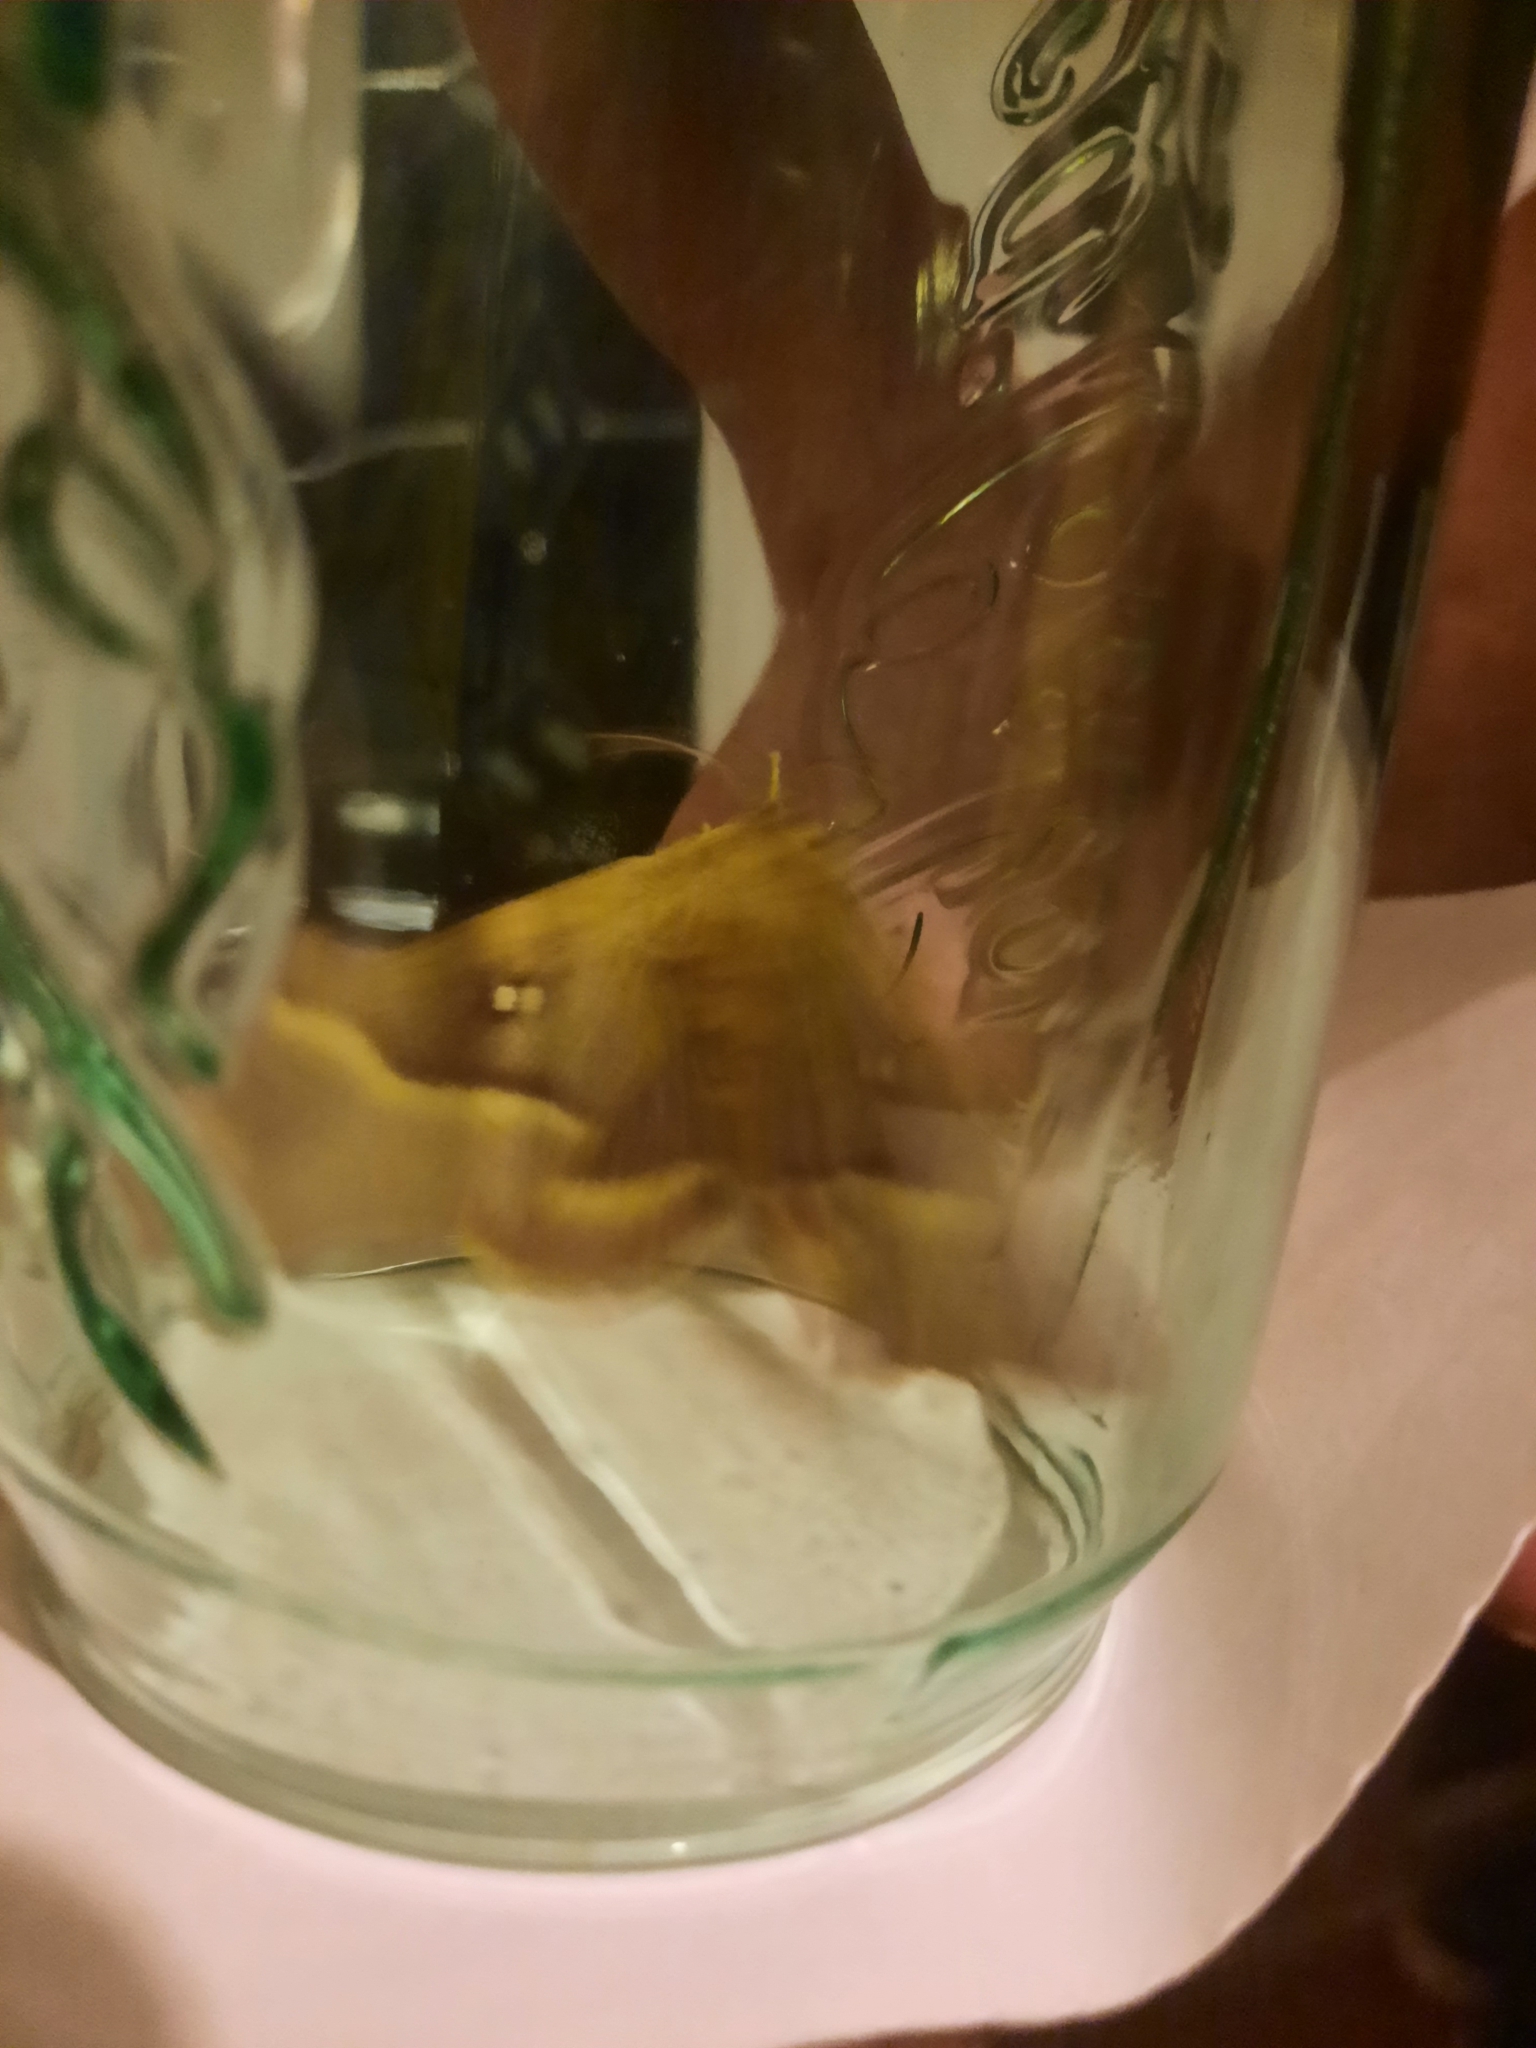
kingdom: Animalia
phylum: Arthropoda
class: Insecta
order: Lepidoptera
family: Lasiocampidae
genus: Lasiocampa
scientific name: Lasiocampa quercus
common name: Oak eggar
